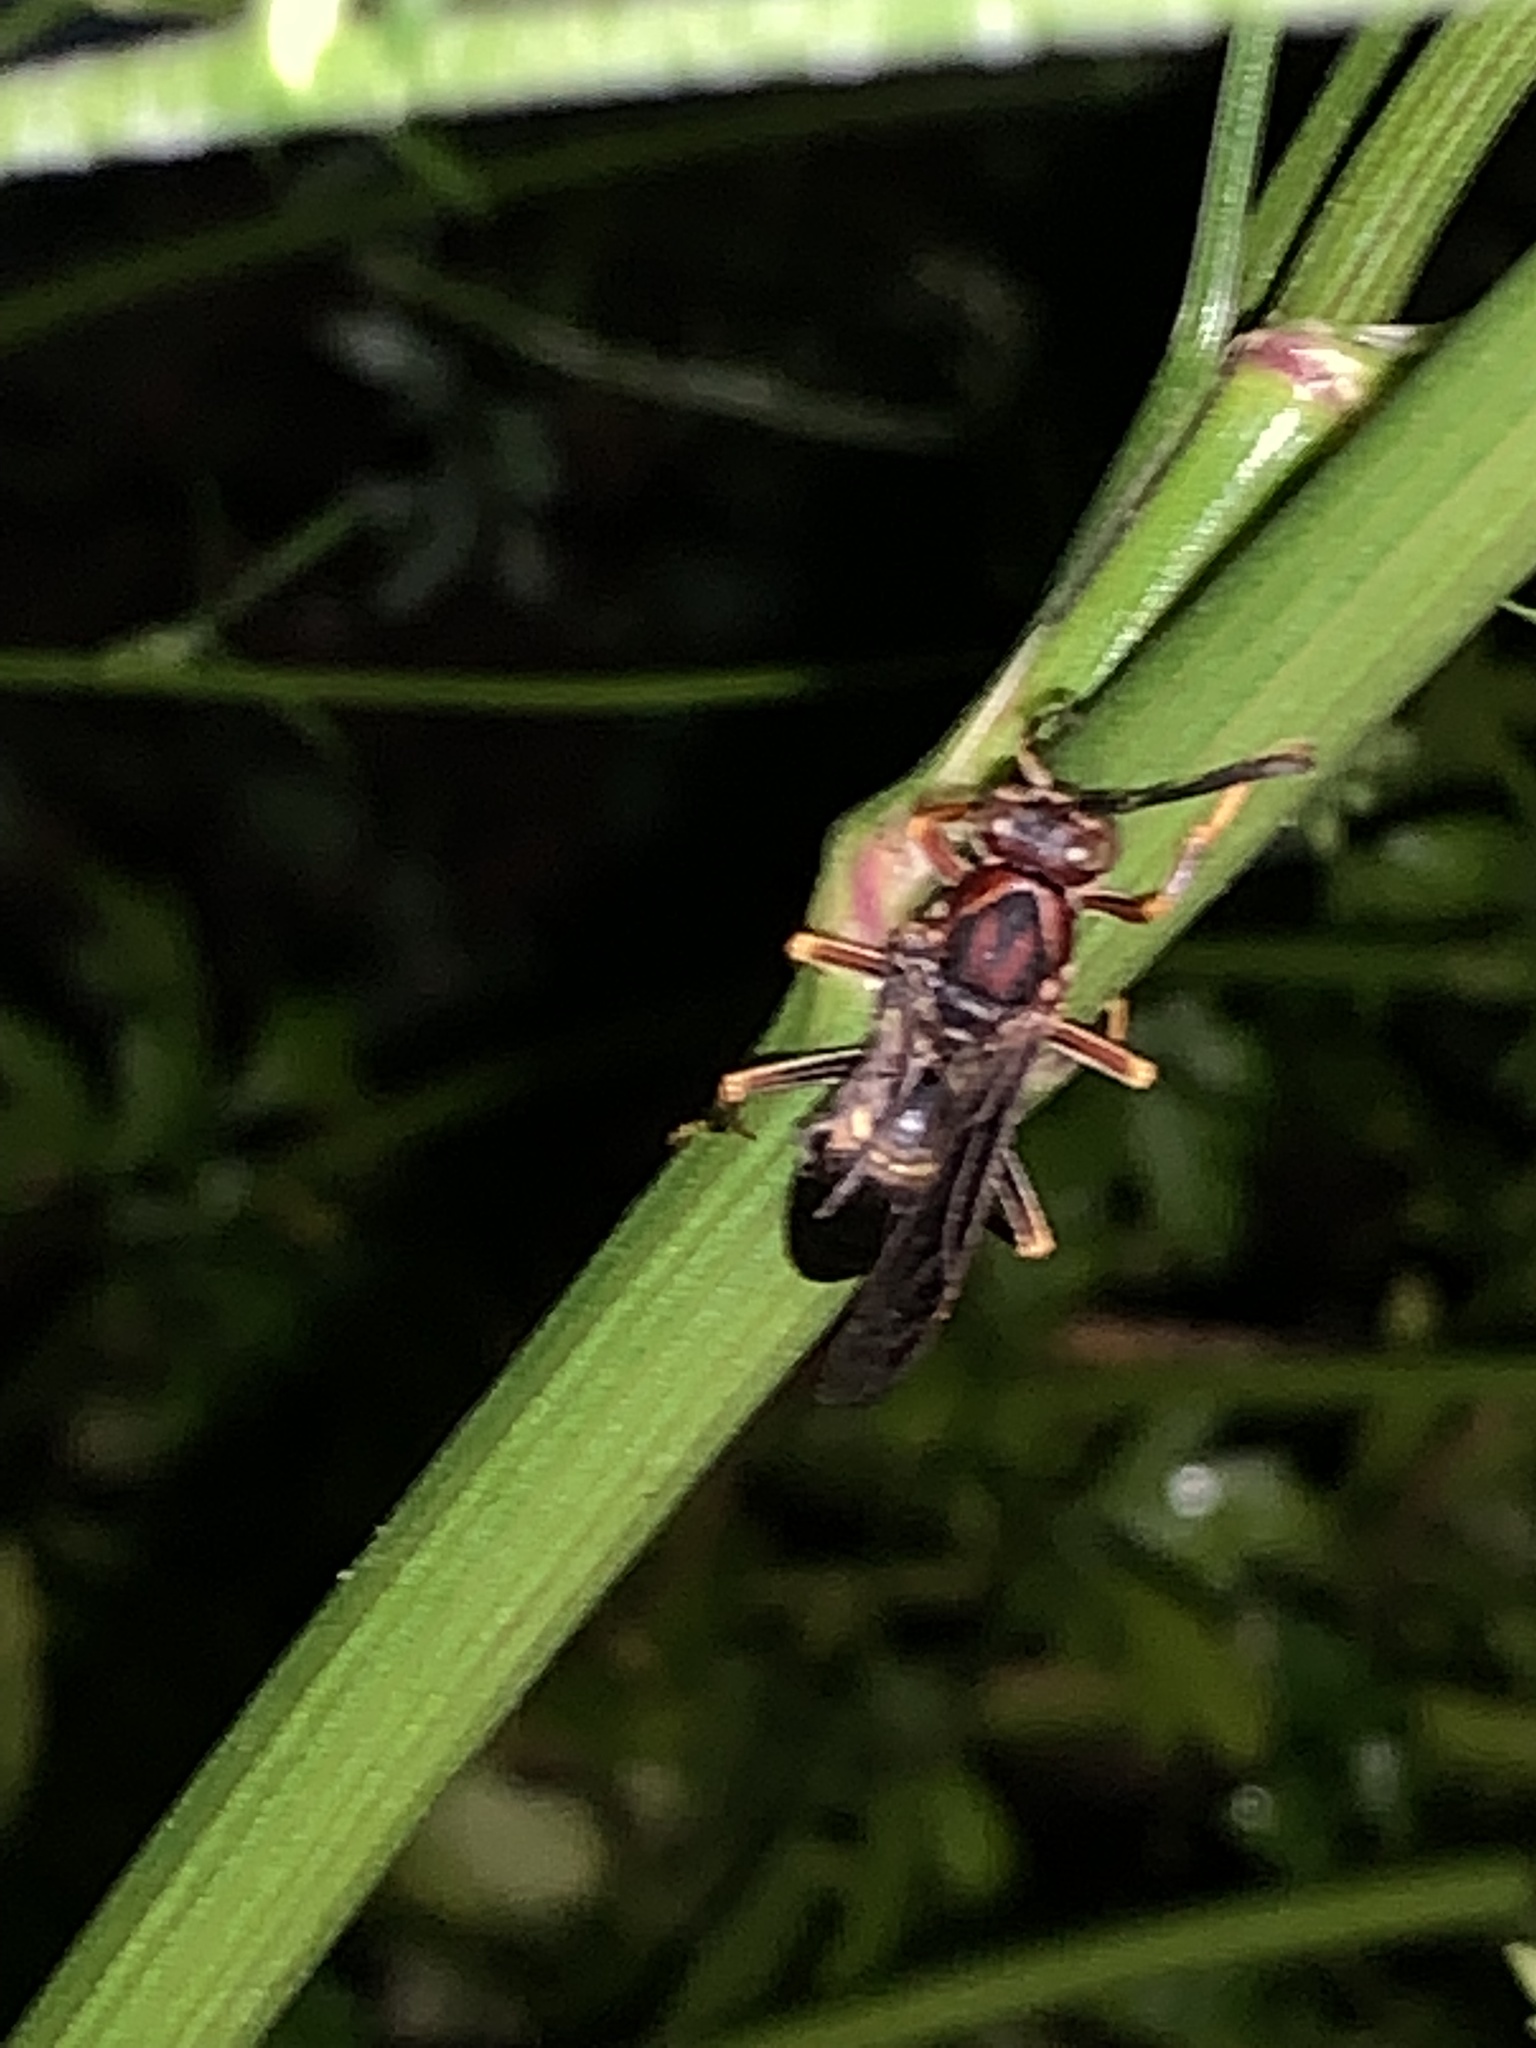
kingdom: Animalia
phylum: Arthropoda
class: Insecta
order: Hymenoptera
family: Eumenidae
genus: Polistes
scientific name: Polistes metricus
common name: Metric paper wasp
